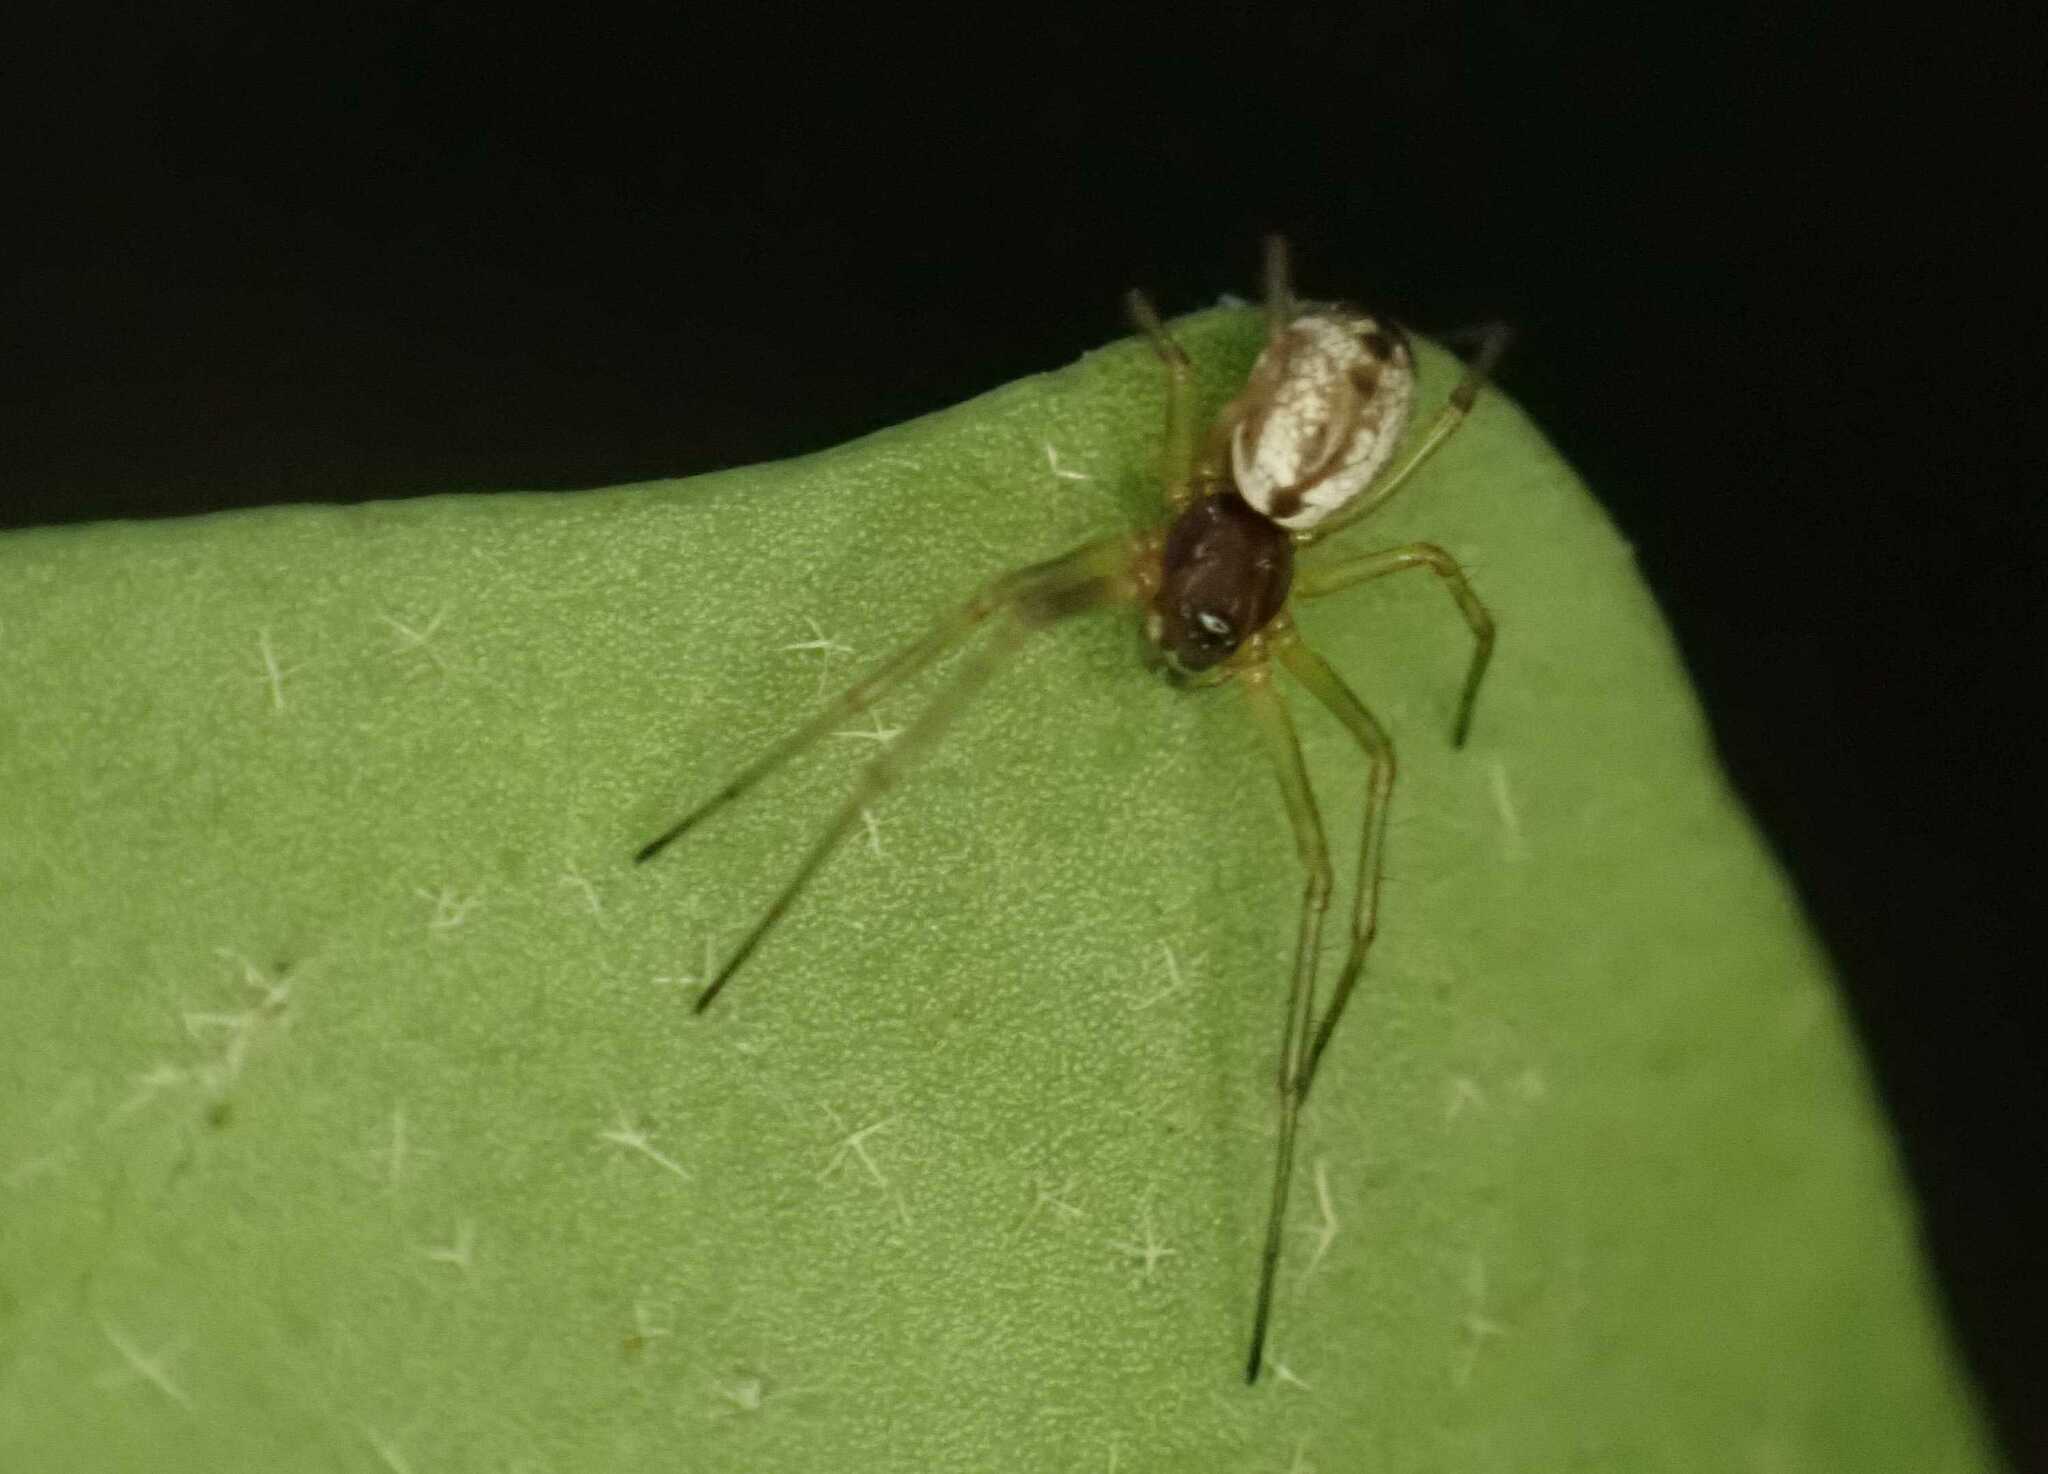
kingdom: Animalia
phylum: Arthropoda
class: Arachnida
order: Araneae
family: Linyphiidae
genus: Microlinyphia
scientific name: Microlinyphia pusilla
